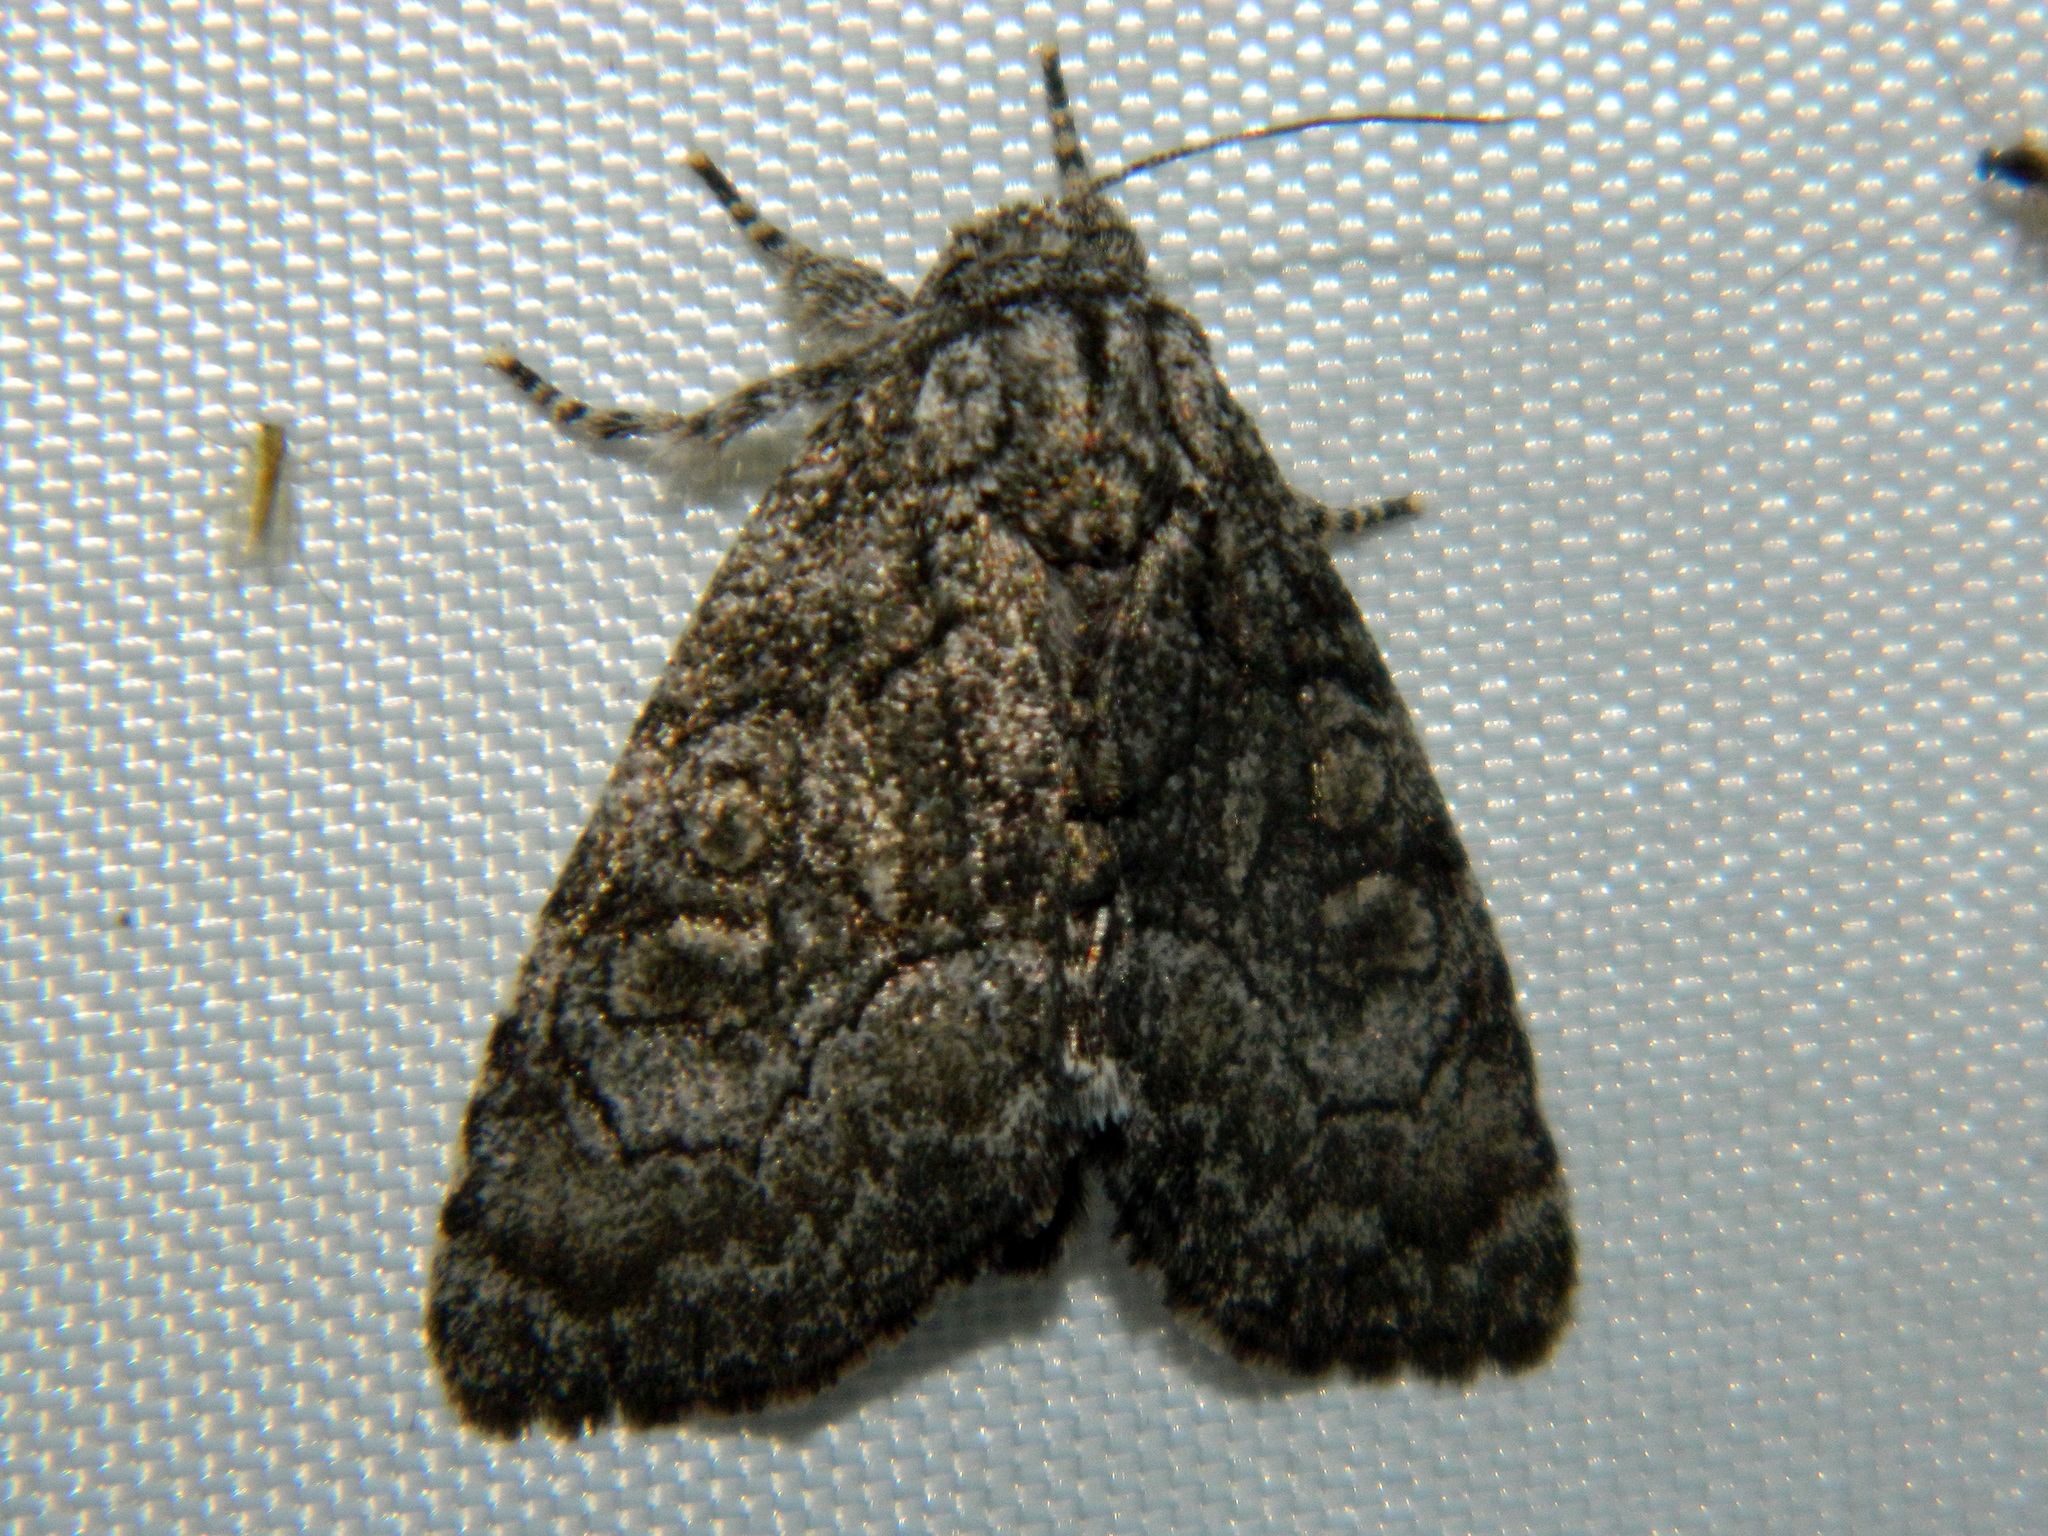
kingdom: Animalia
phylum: Arthropoda
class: Insecta
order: Lepidoptera
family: Noctuidae
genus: Raphia
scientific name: Raphia frater
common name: Brother
